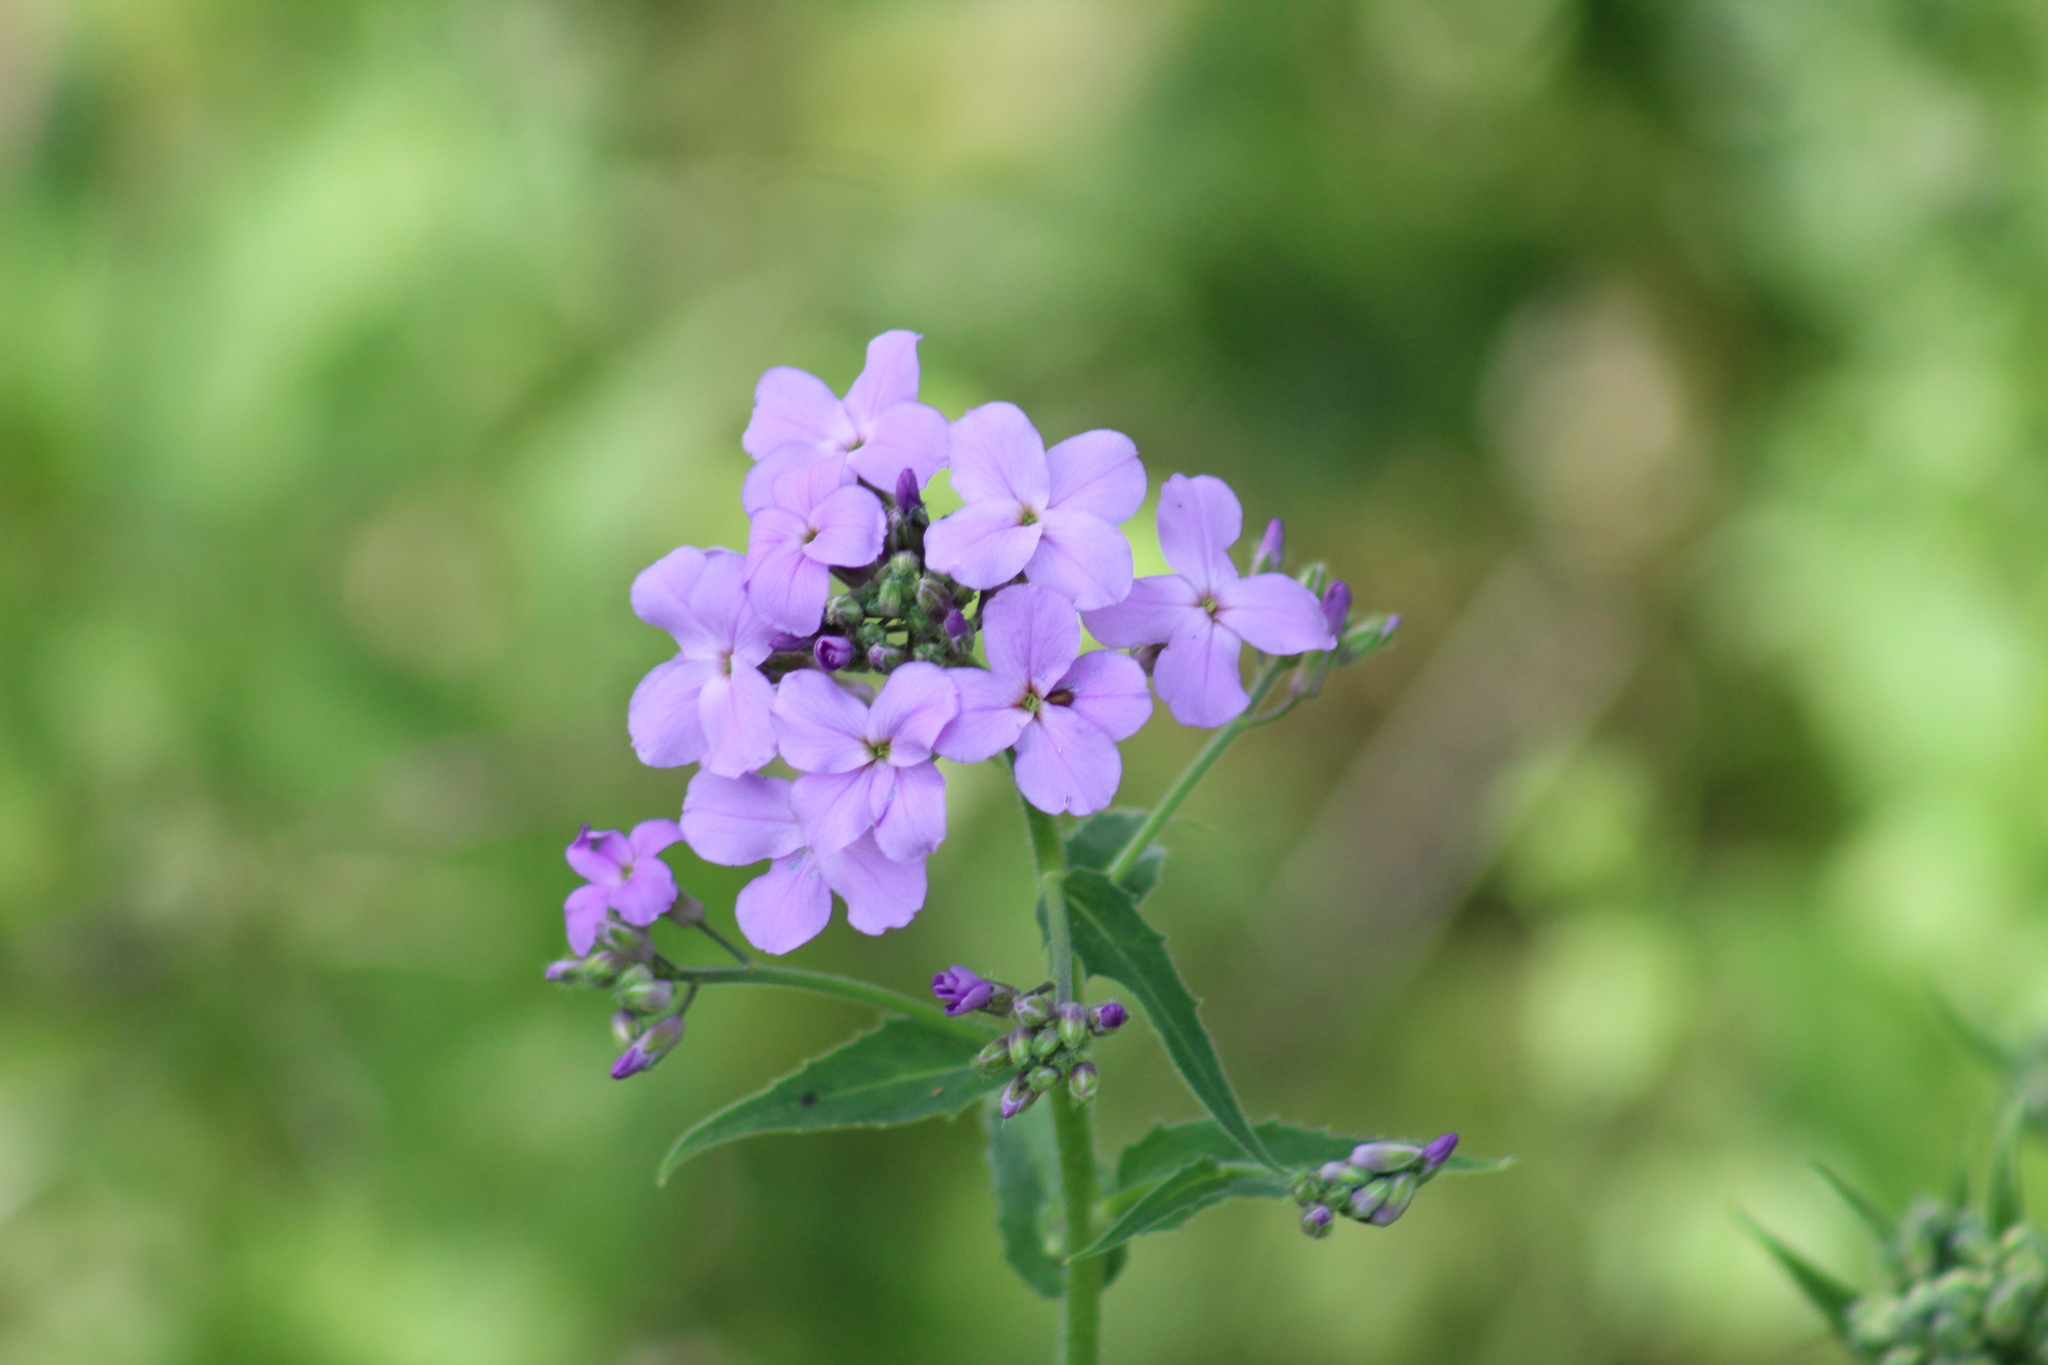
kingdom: Plantae
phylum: Tracheophyta
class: Magnoliopsida
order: Brassicales
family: Brassicaceae
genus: Hesperis
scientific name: Hesperis matronalis
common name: Dame's-violet
